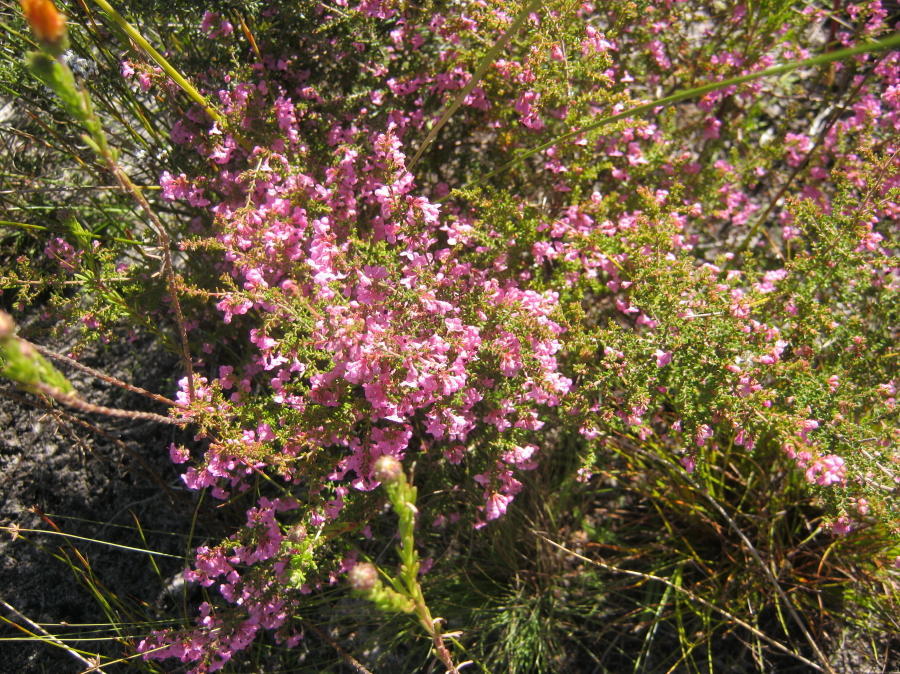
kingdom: Plantae
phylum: Tracheophyta
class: Magnoliopsida
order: Ericales
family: Ericaceae
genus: Erica
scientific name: Erica melanthera
